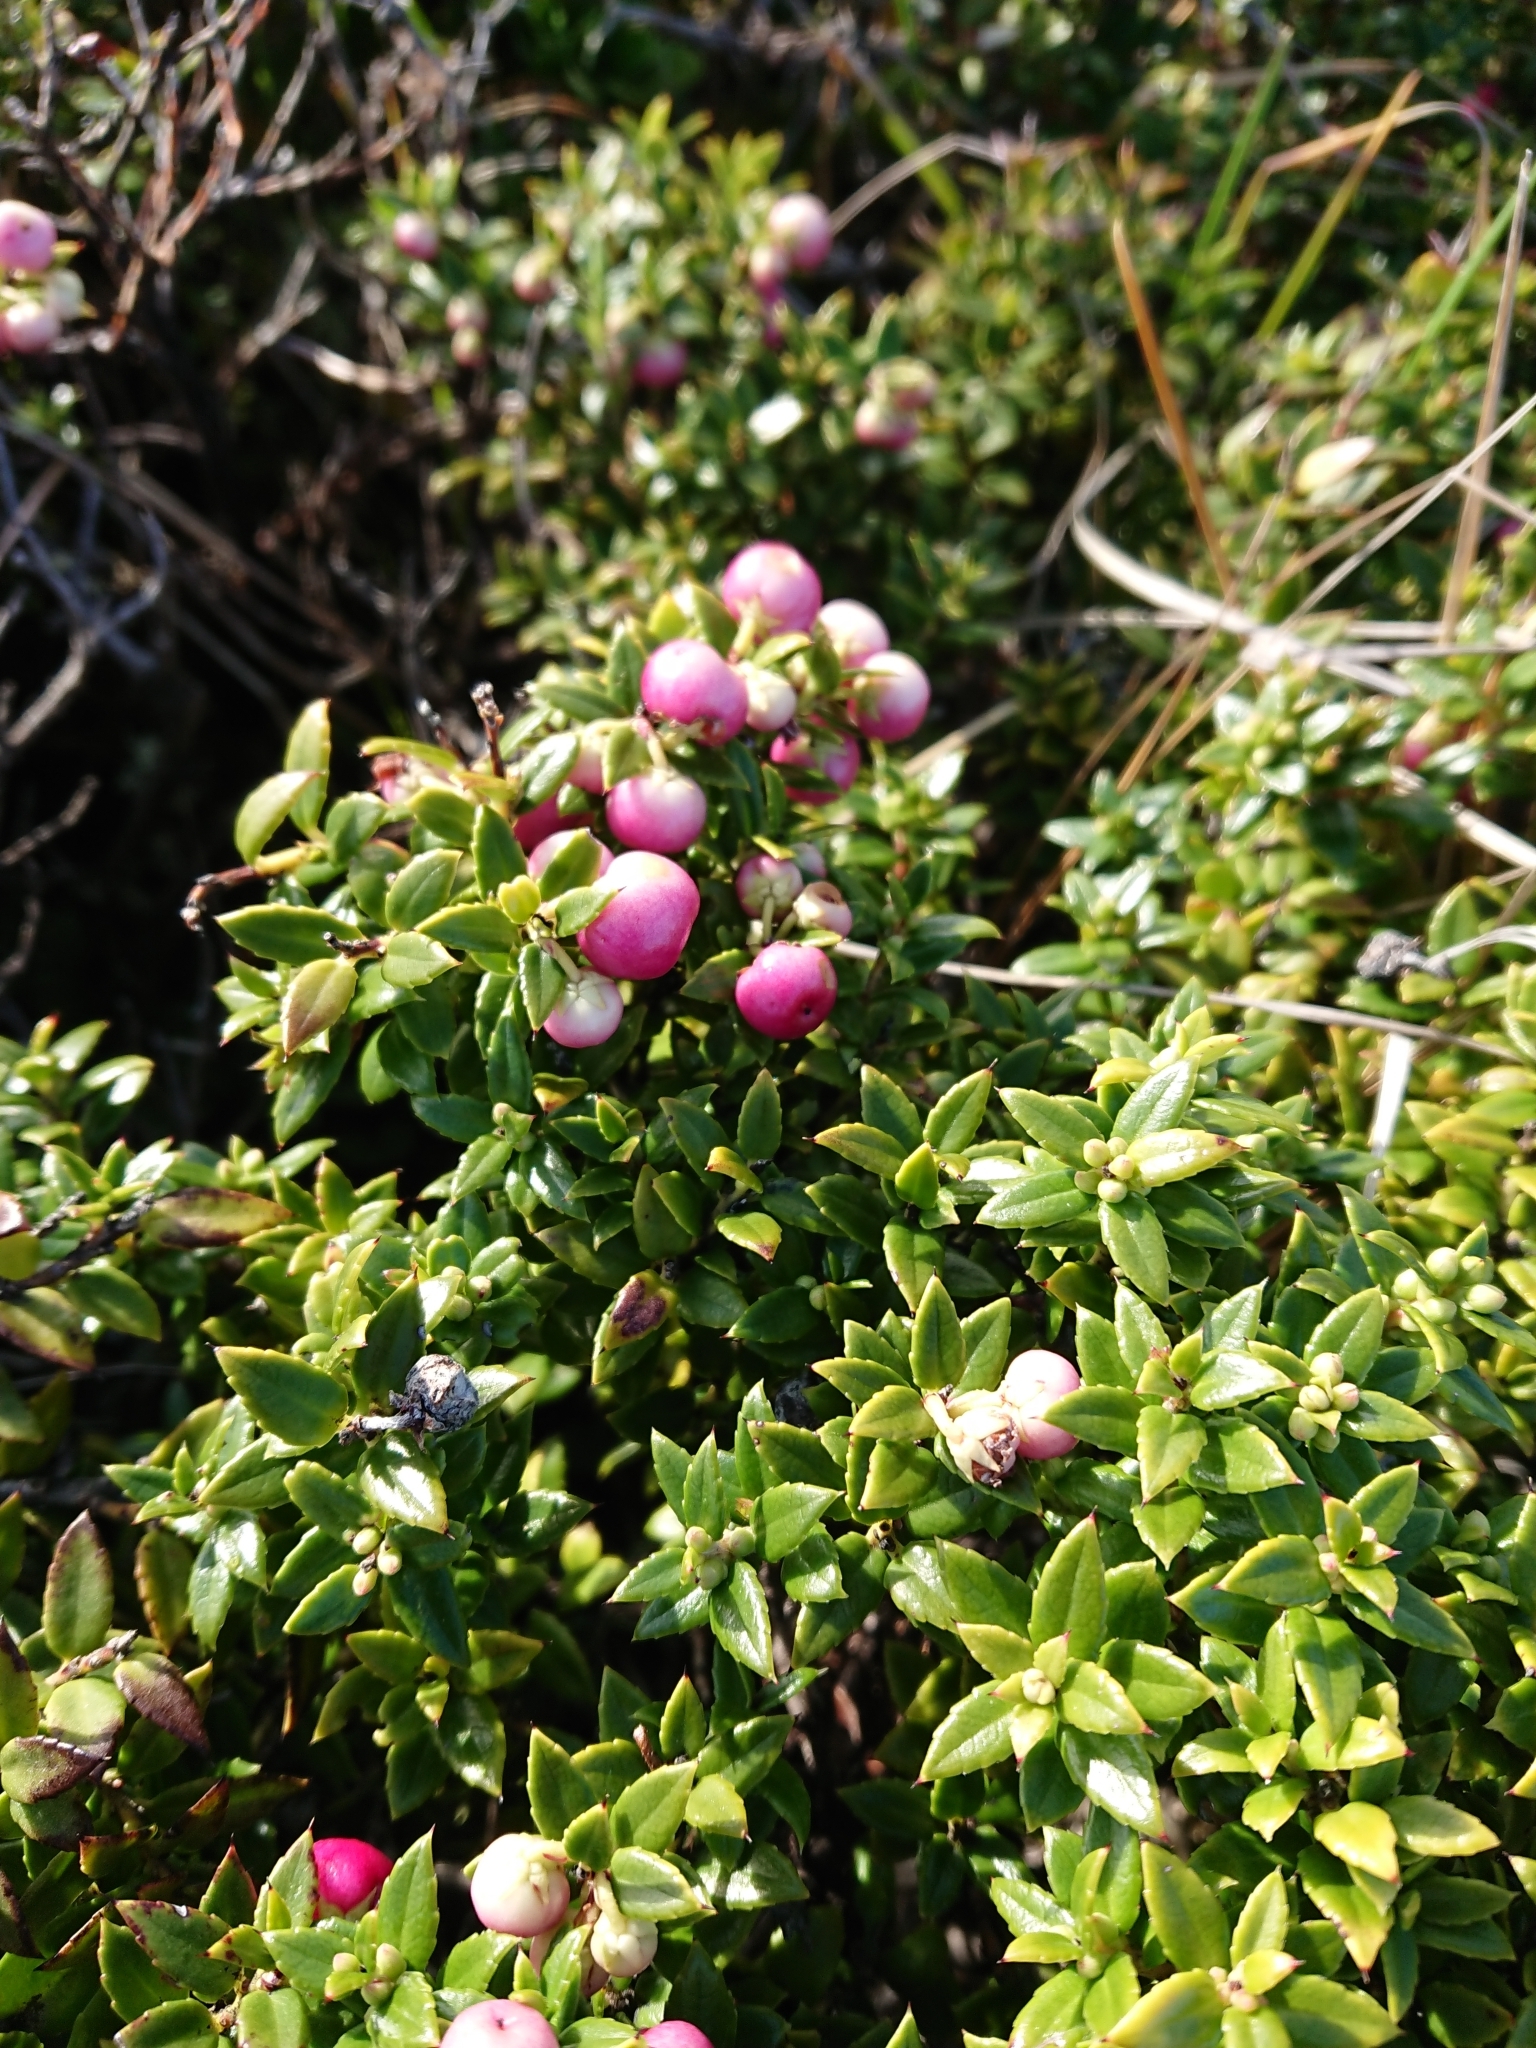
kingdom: Plantae
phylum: Tracheophyta
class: Magnoliopsida
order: Ericales
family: Ericaceae
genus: Gaultheria
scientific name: Gaultheria mucronata
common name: Prickly heath
